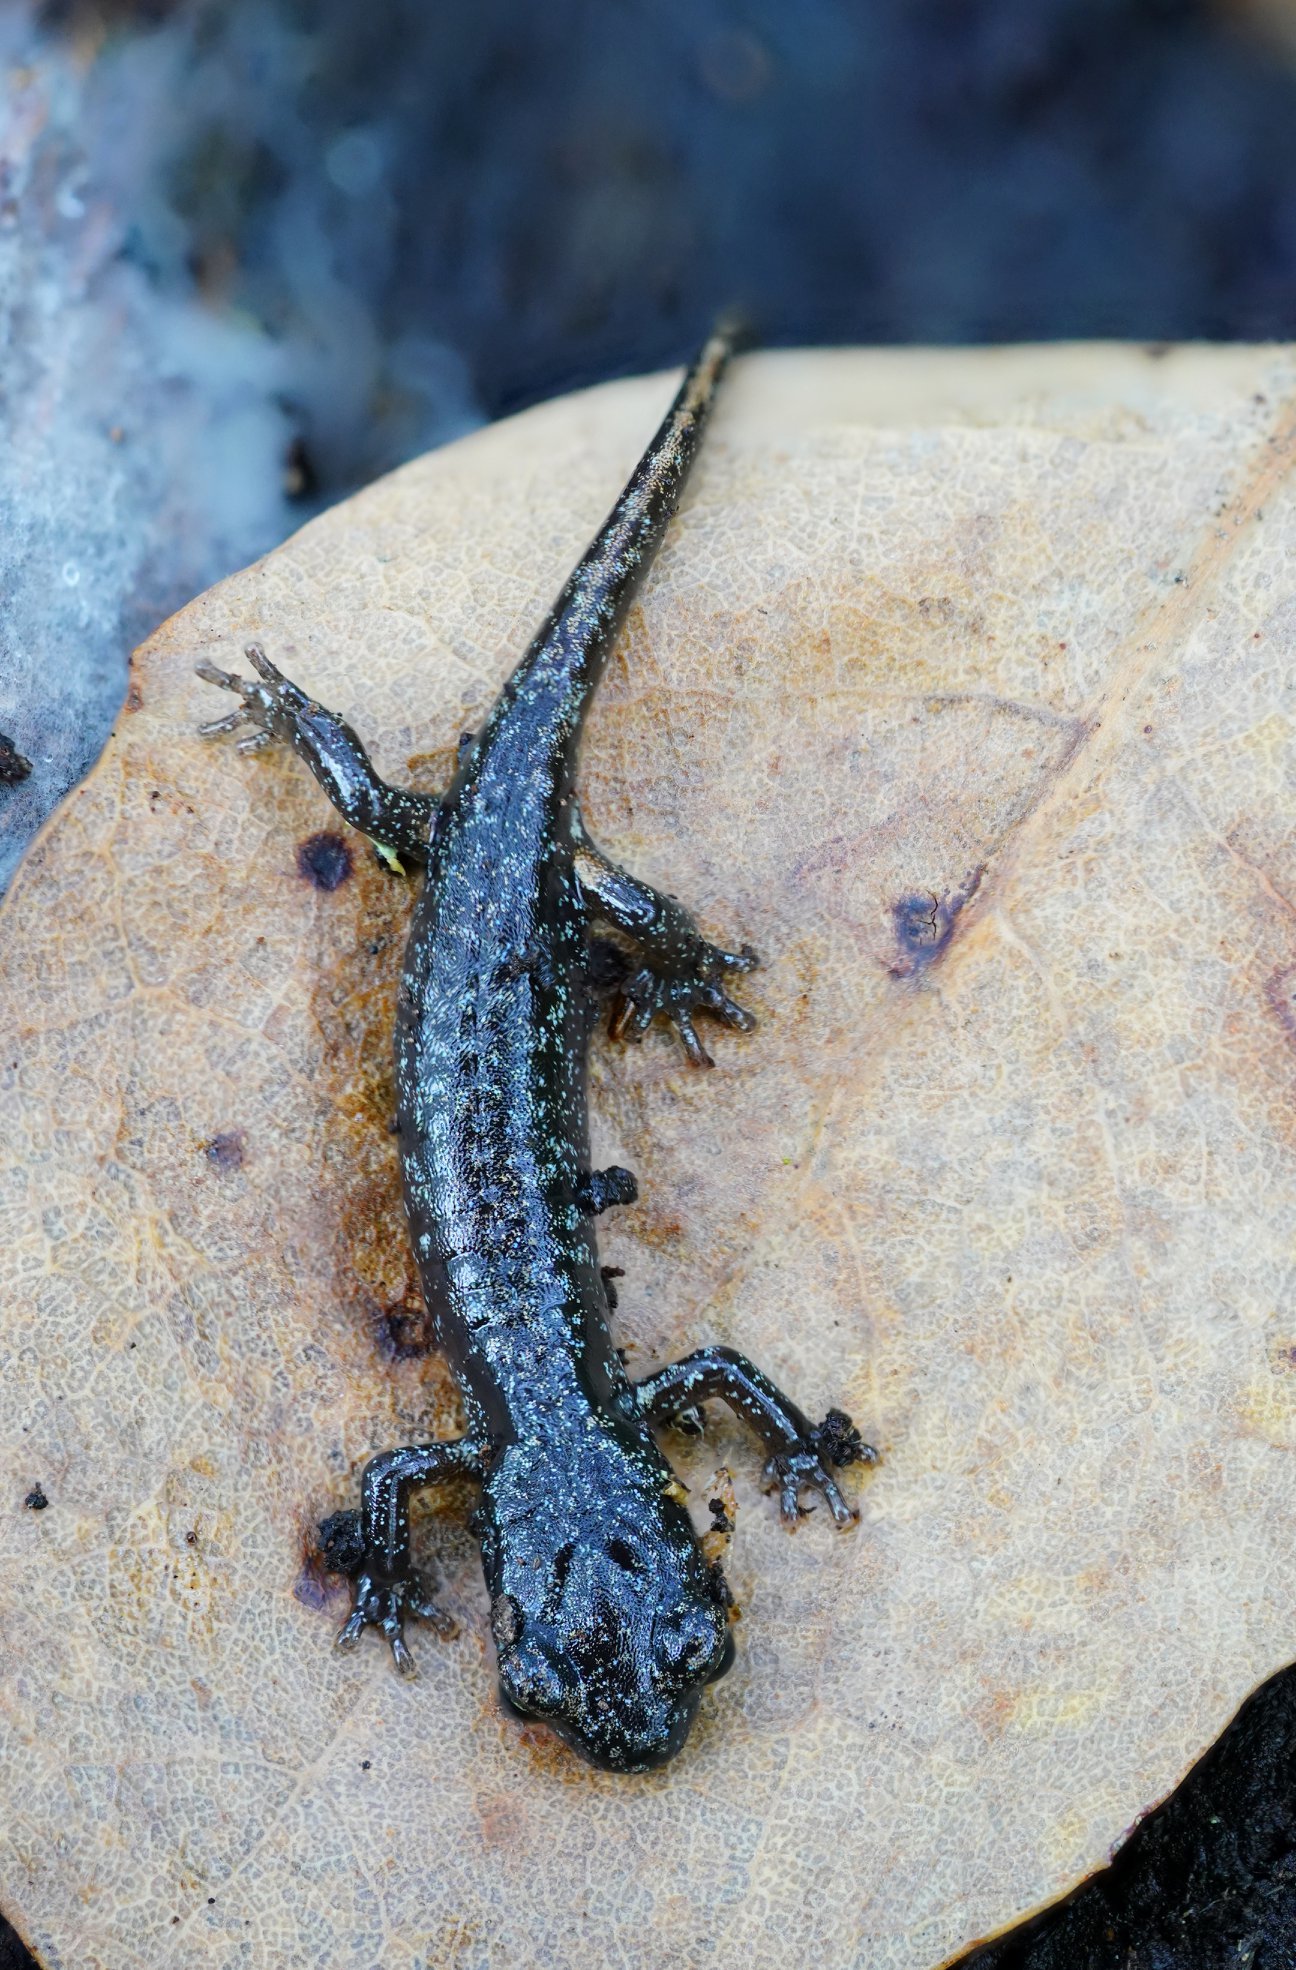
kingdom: Animalia
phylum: Chordata
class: Amphibia
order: Caudata
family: Plethodontidae
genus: Aneides
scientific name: Aneides lugubris
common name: Arboreal salamander
